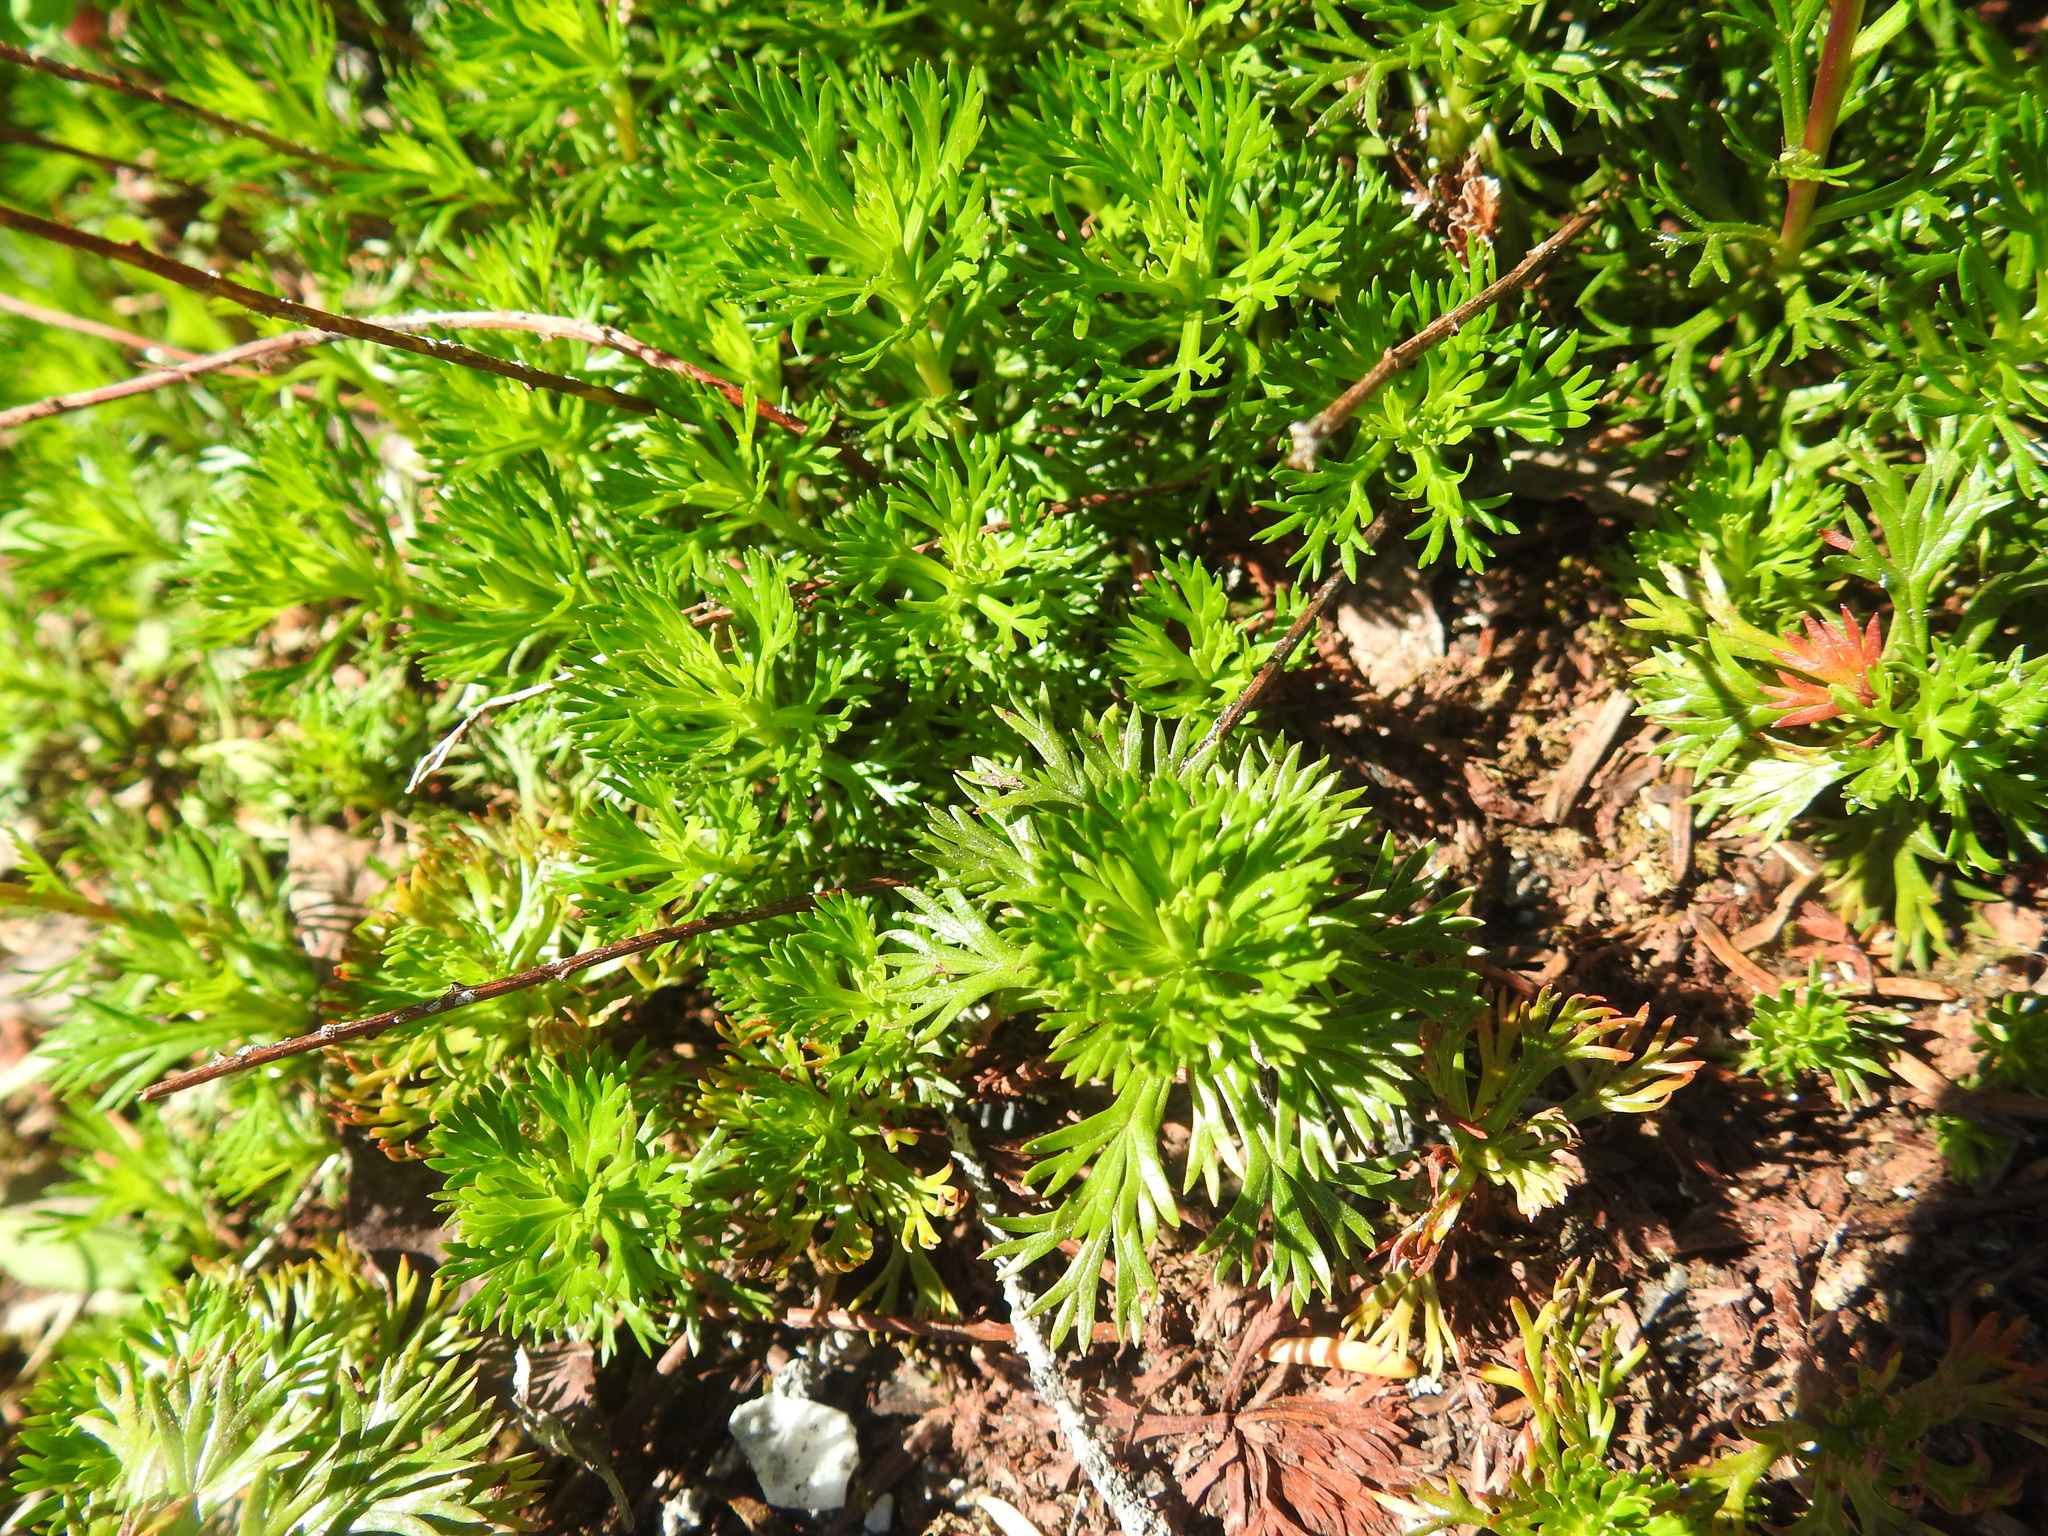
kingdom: Plantae
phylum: Tracheophyta
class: Magnoliopsida
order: Rosales
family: Rosaceae
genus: Luetkea
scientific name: Luetkea pectinata
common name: Partridgefoot
